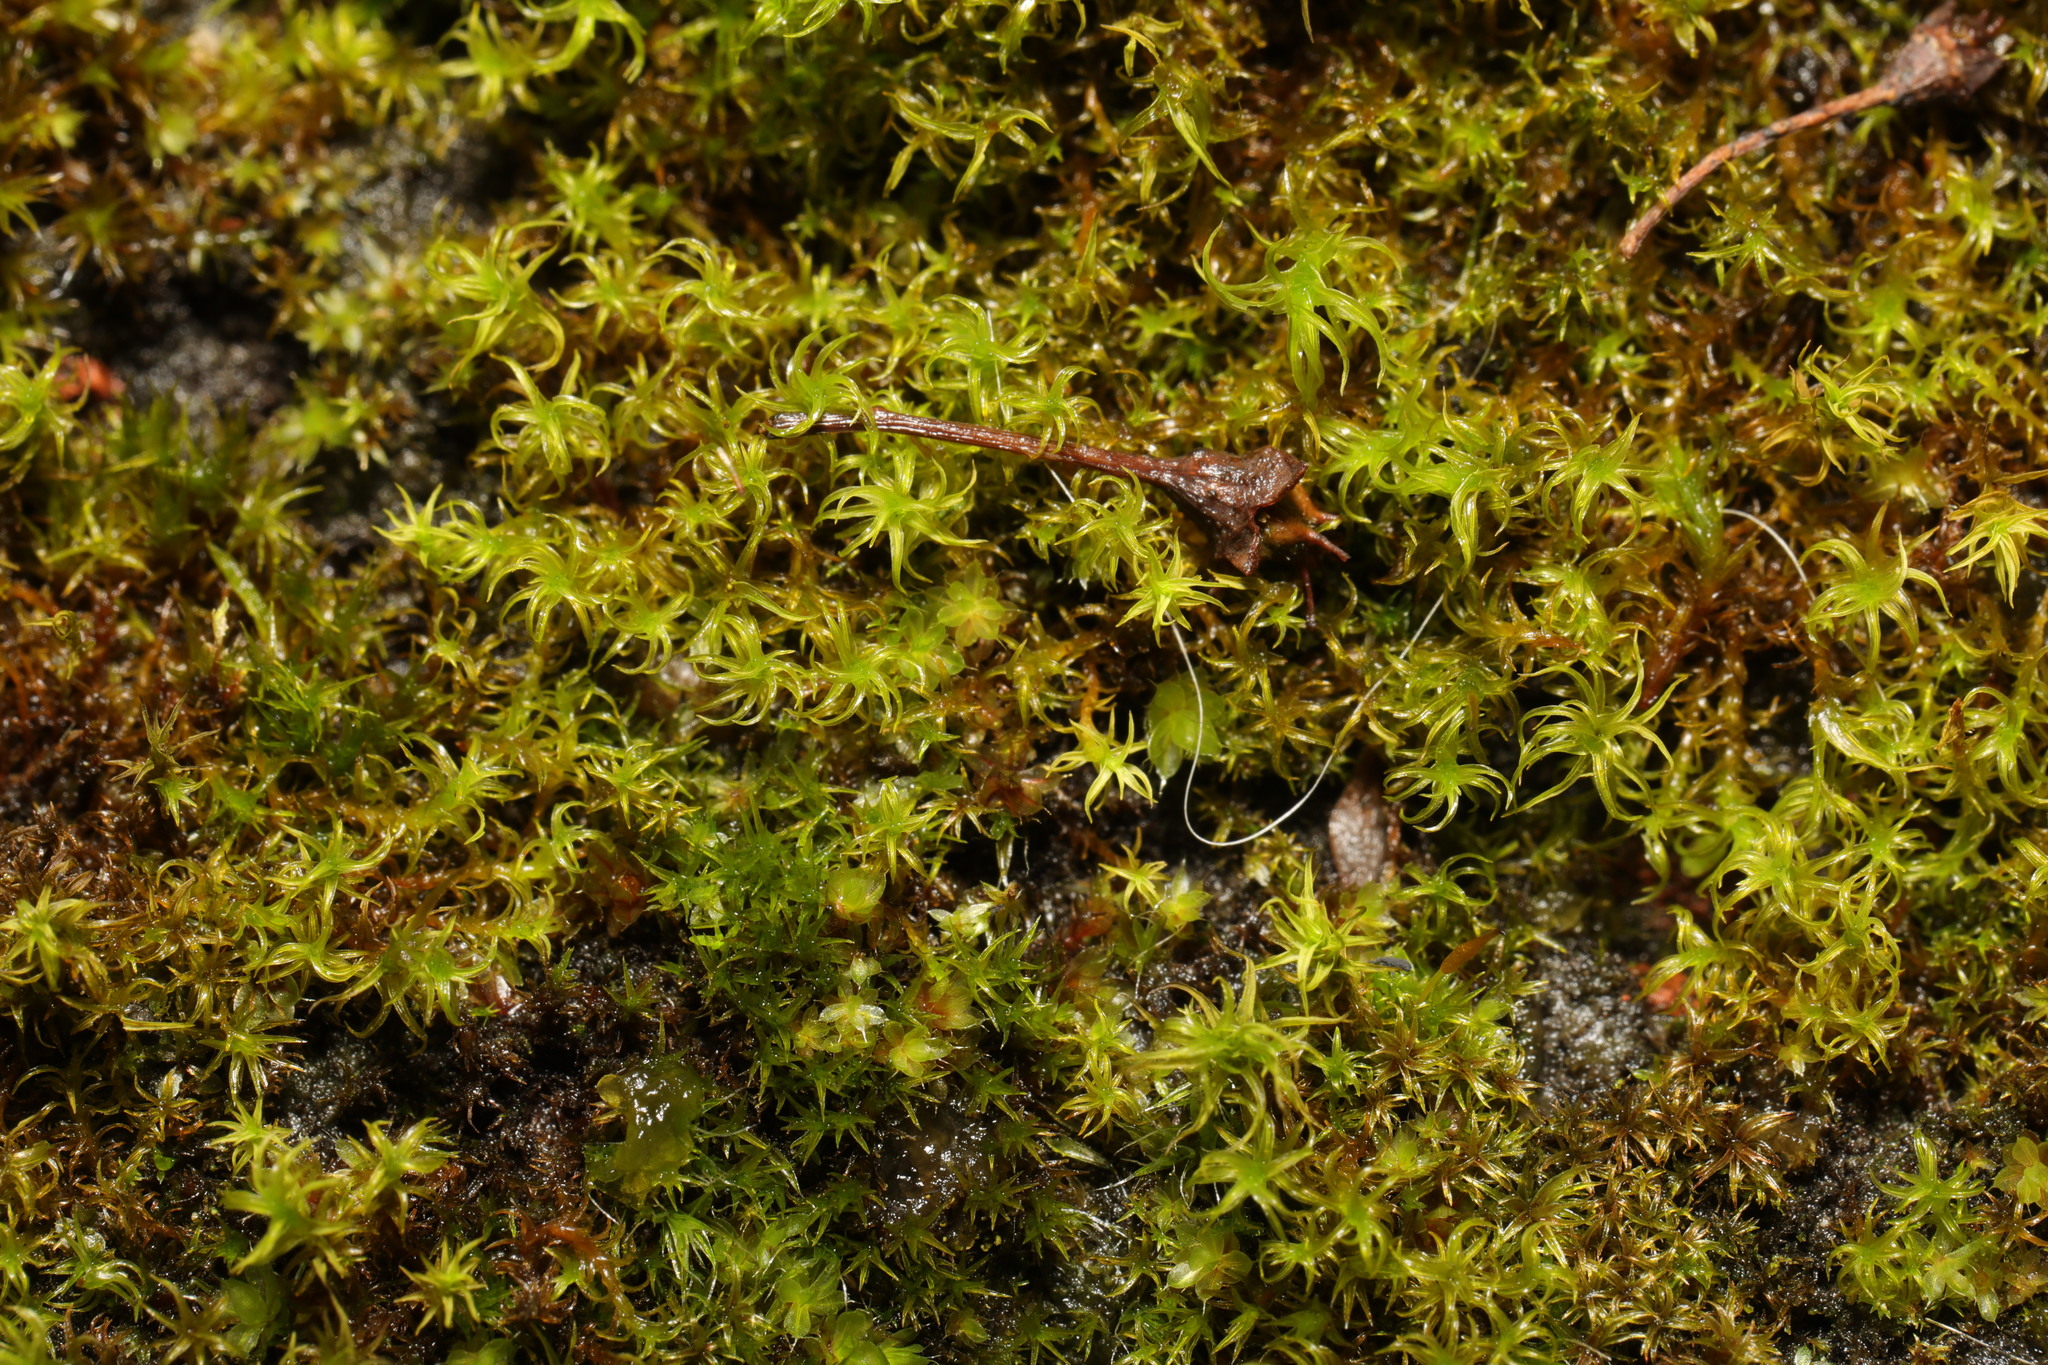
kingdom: Plantae
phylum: Bryophyta
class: Bryopsida
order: Pottiales
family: Pottiaceae
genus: Vinealobryum
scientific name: Vinealobryum insulanum
